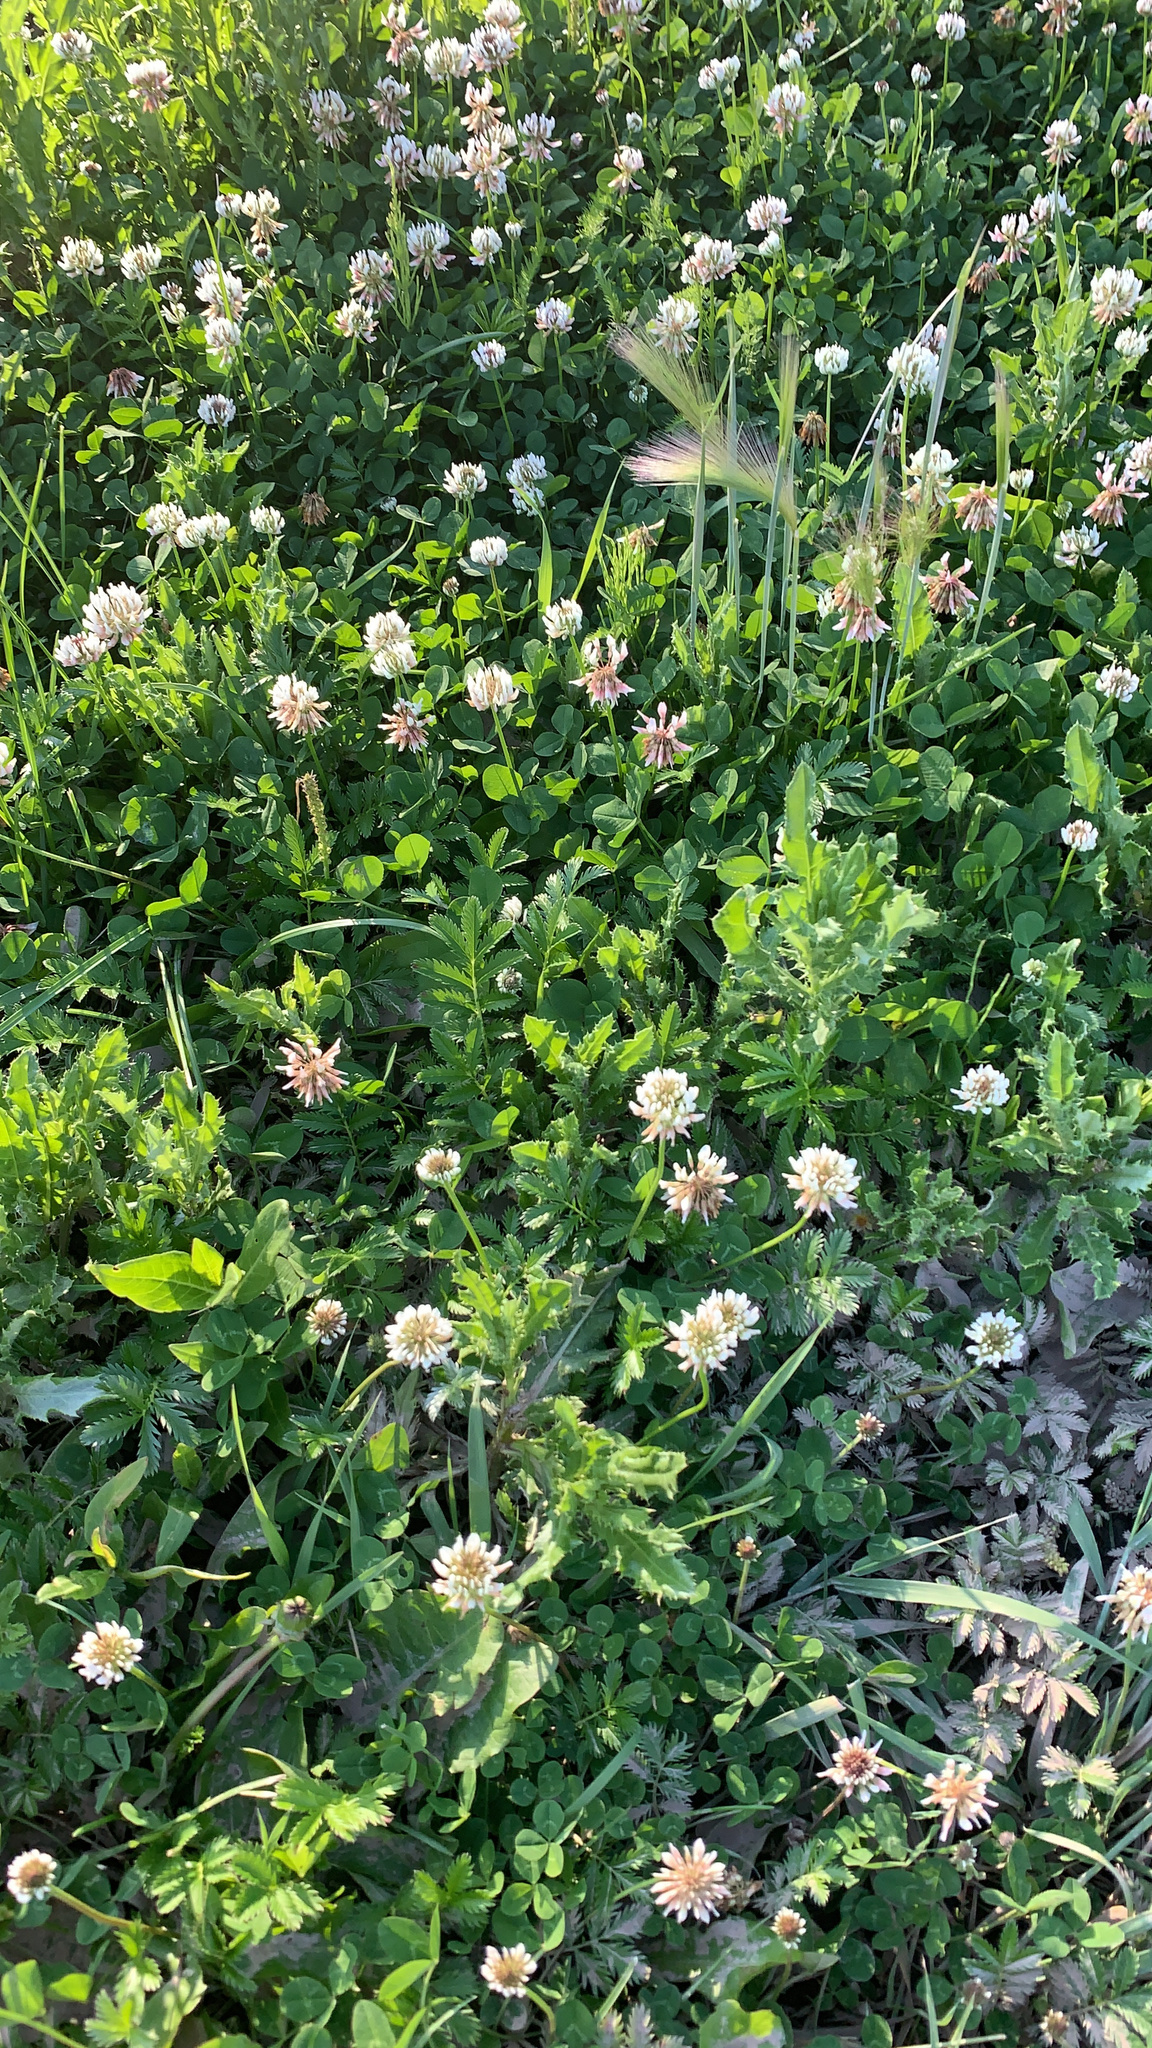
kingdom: Plantae
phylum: Tracheophyta
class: Magnoliopsida
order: Fabales
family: Fabaceae
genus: Trifolium
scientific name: Trifolium repens
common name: White clover
